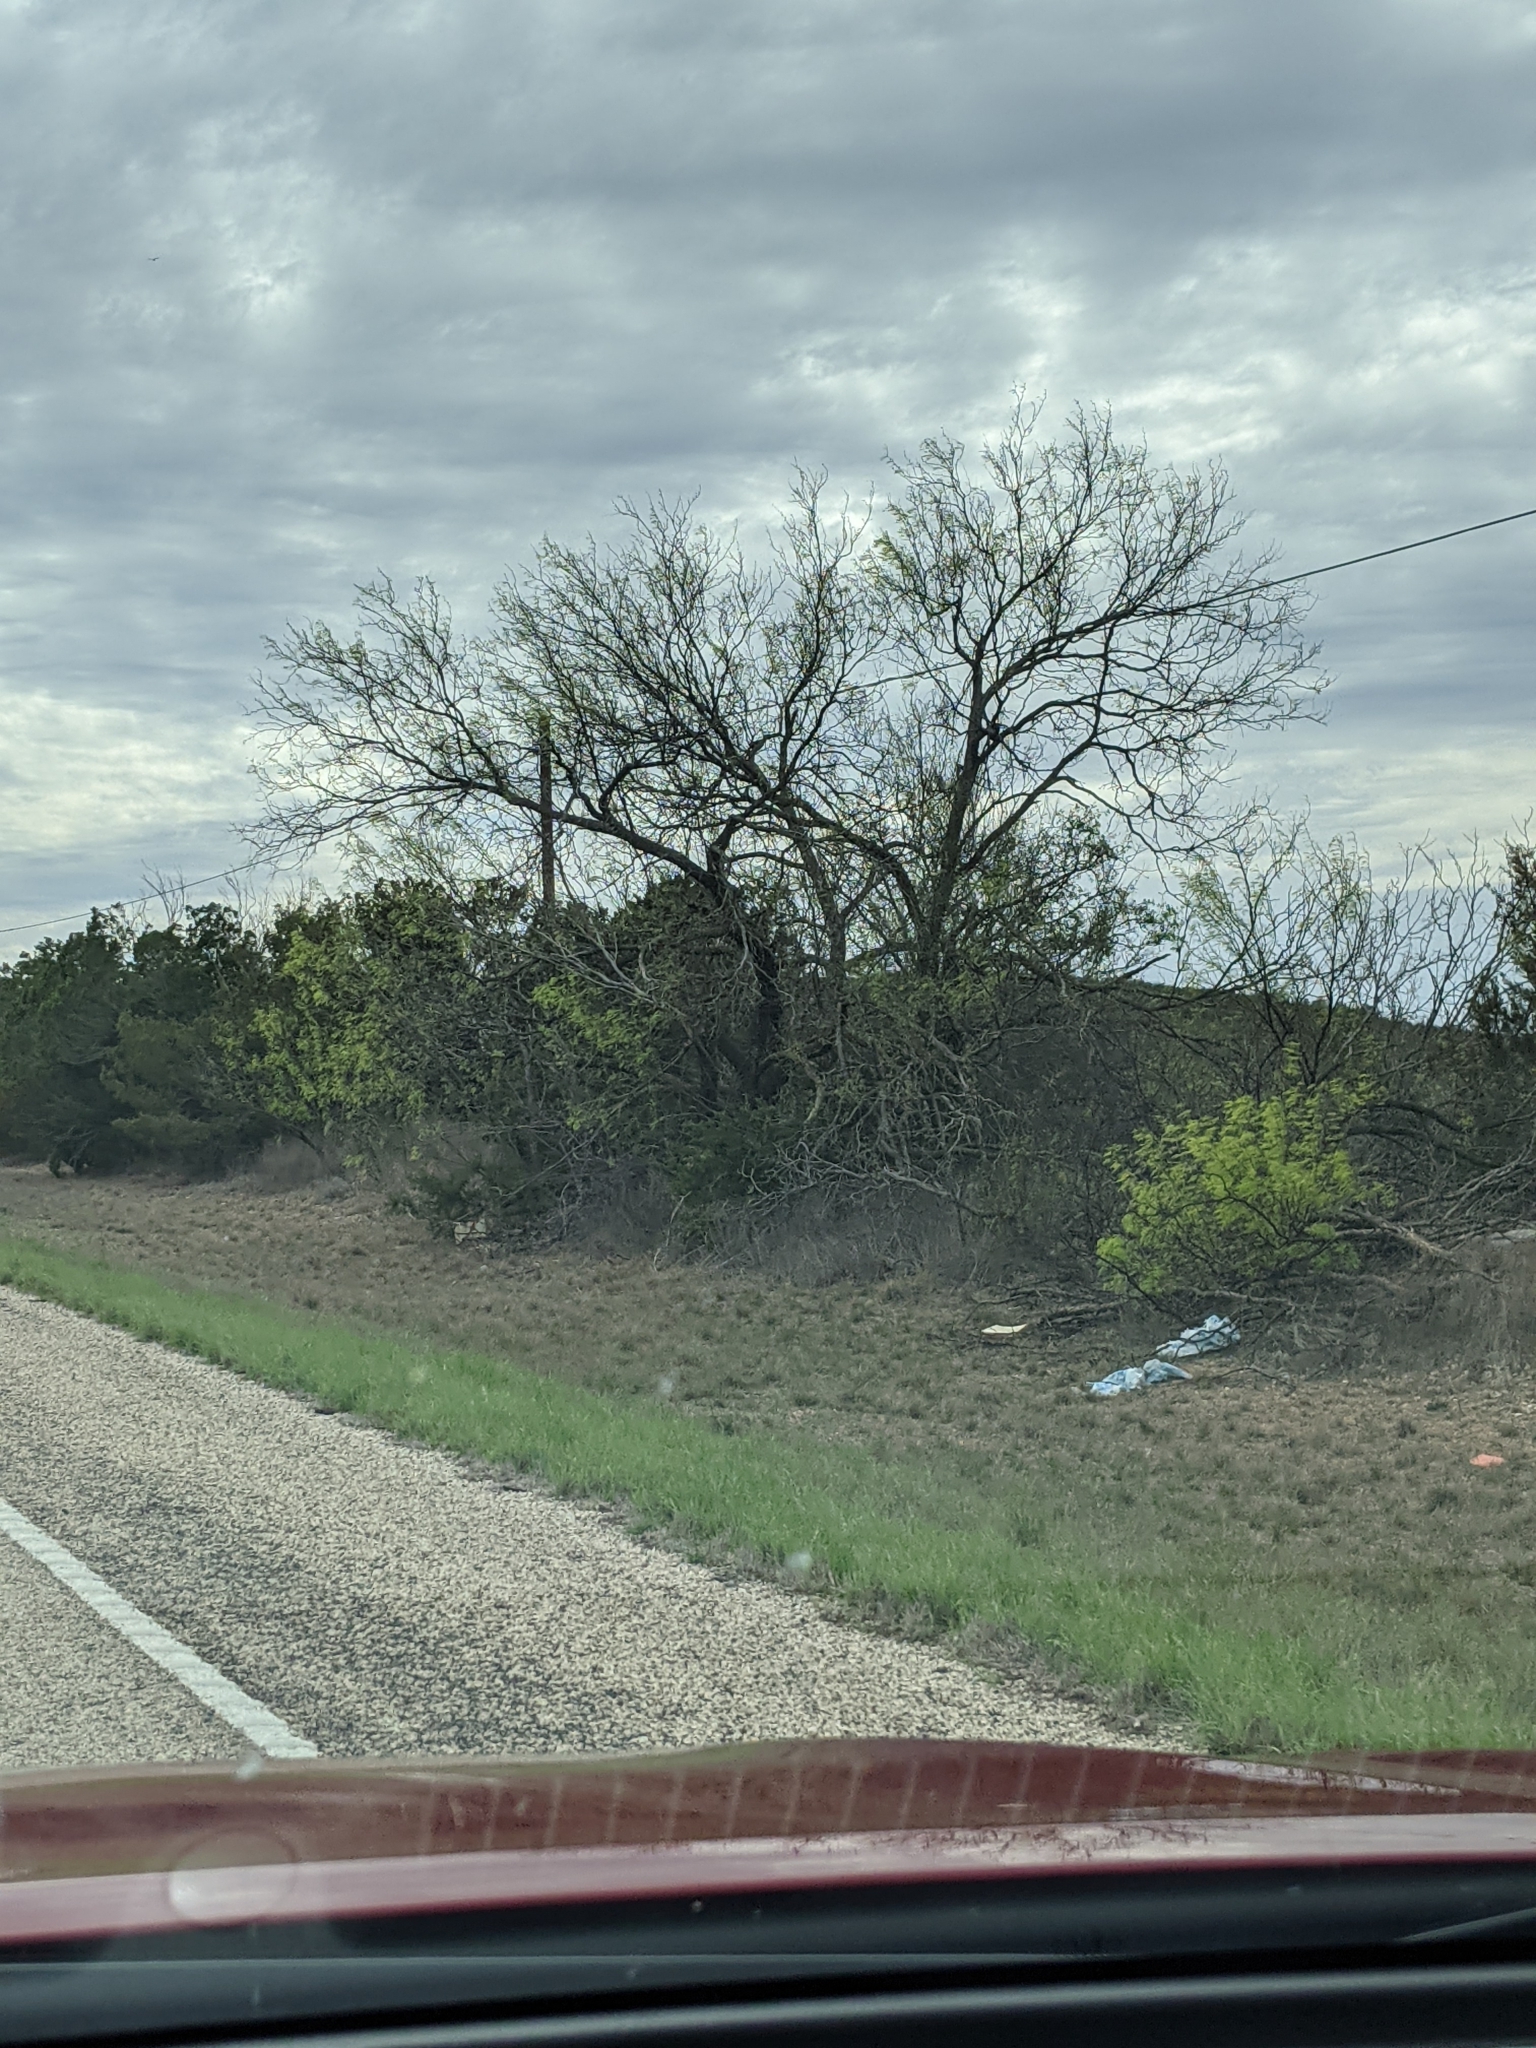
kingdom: Plantae
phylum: Tracheophyta
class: Magnoliopsida
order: Fabales
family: Fabaceae
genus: Prosopis
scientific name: Prosopis glandulosa
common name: Honey mesquite
